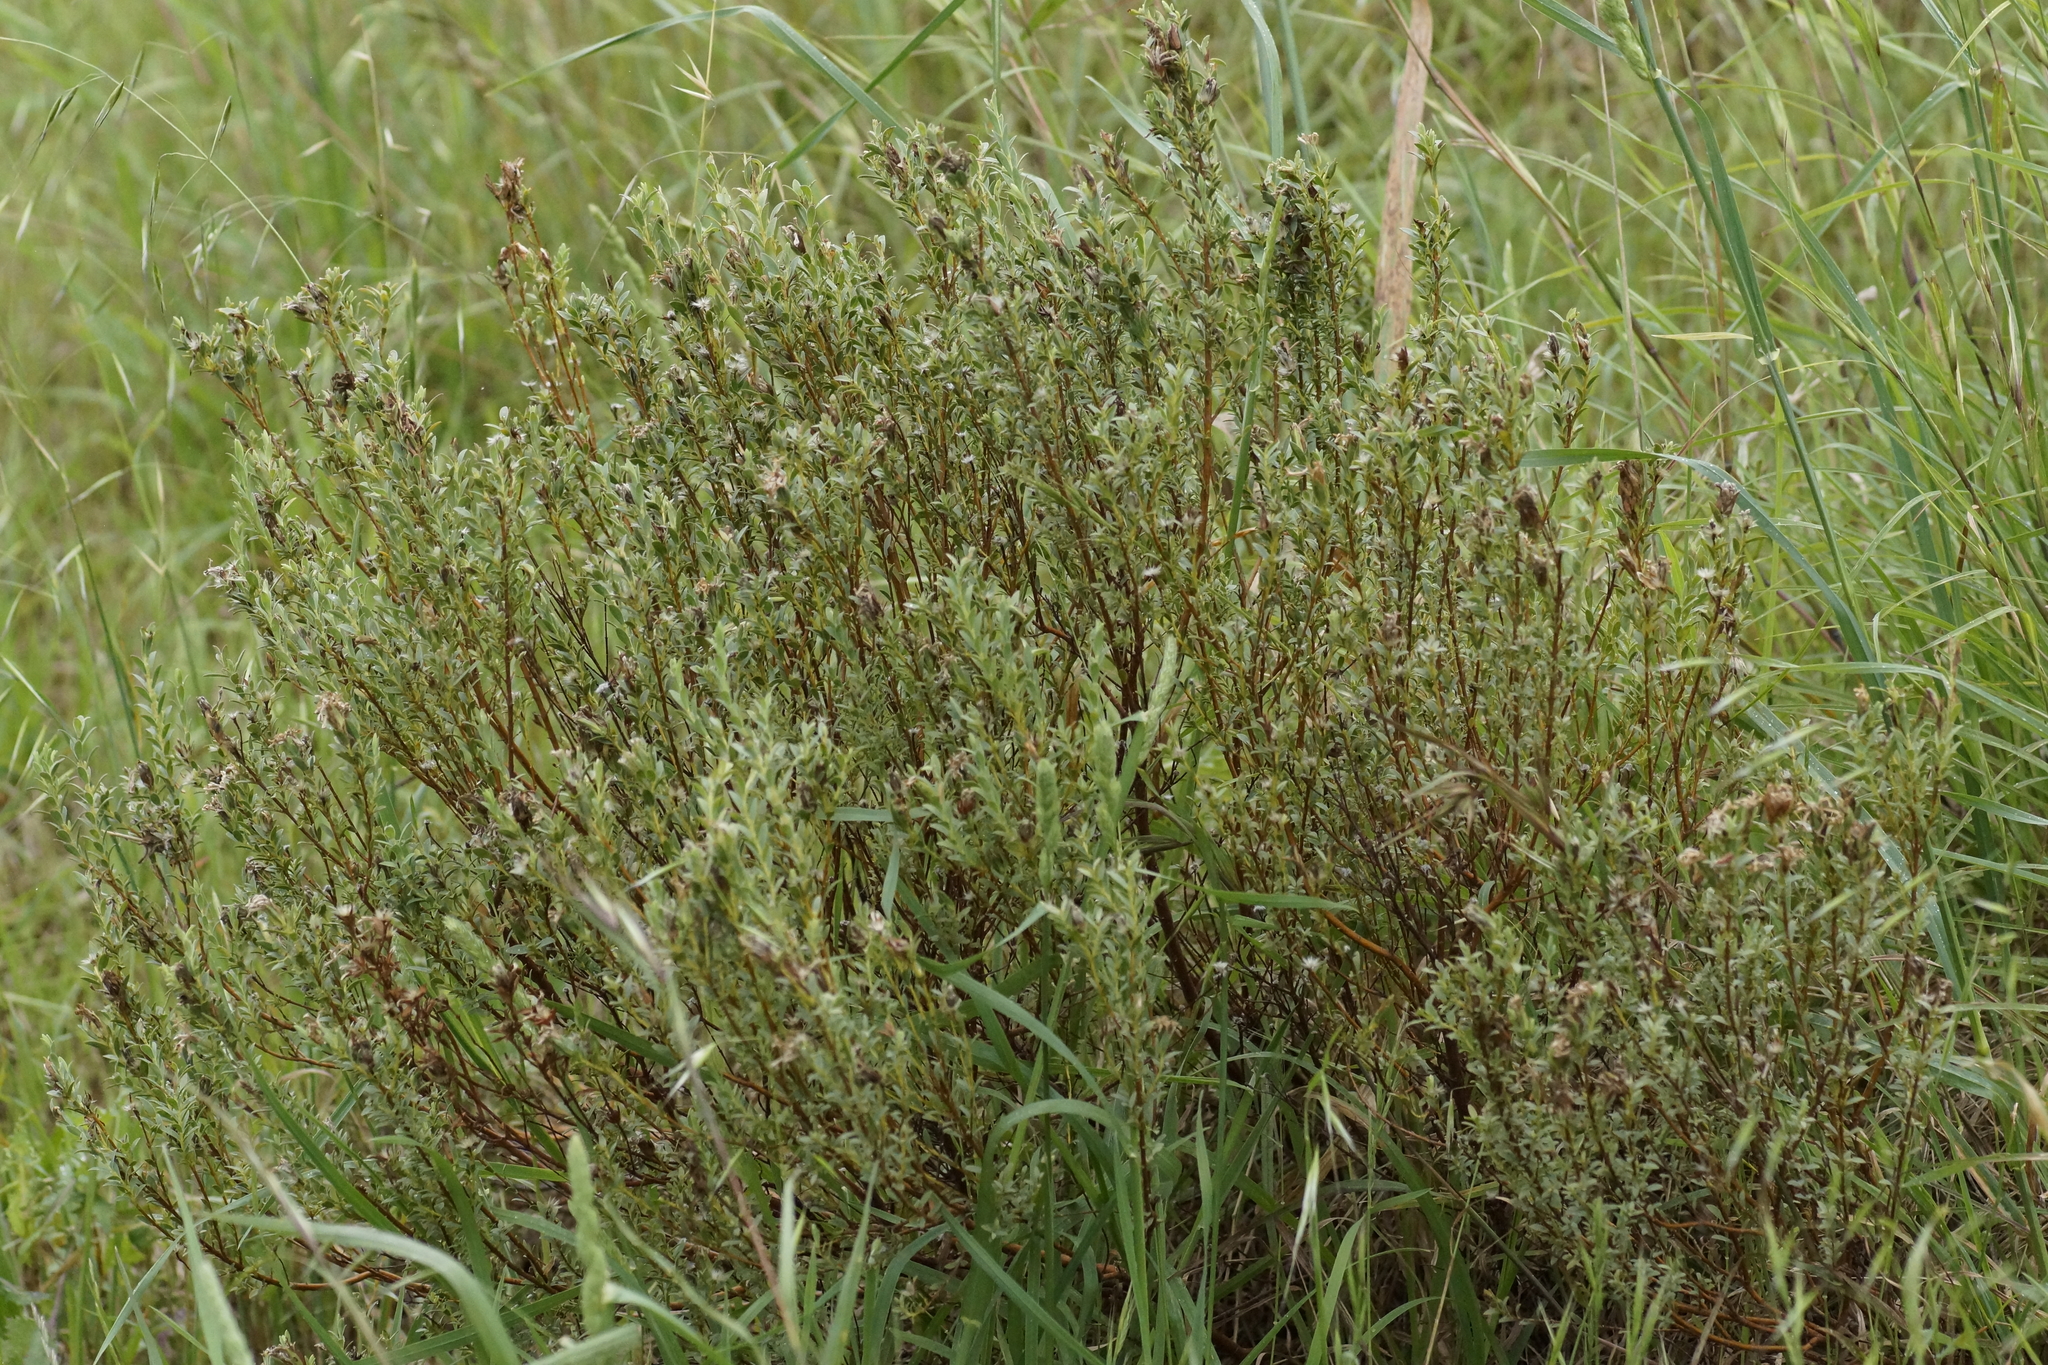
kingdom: Plantae
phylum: Tracheophyta
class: Magnoliopsida
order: Malvales
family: Thymelaeaceae
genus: Pimelea
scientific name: Pimelea glauca
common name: Smooth riceflower
